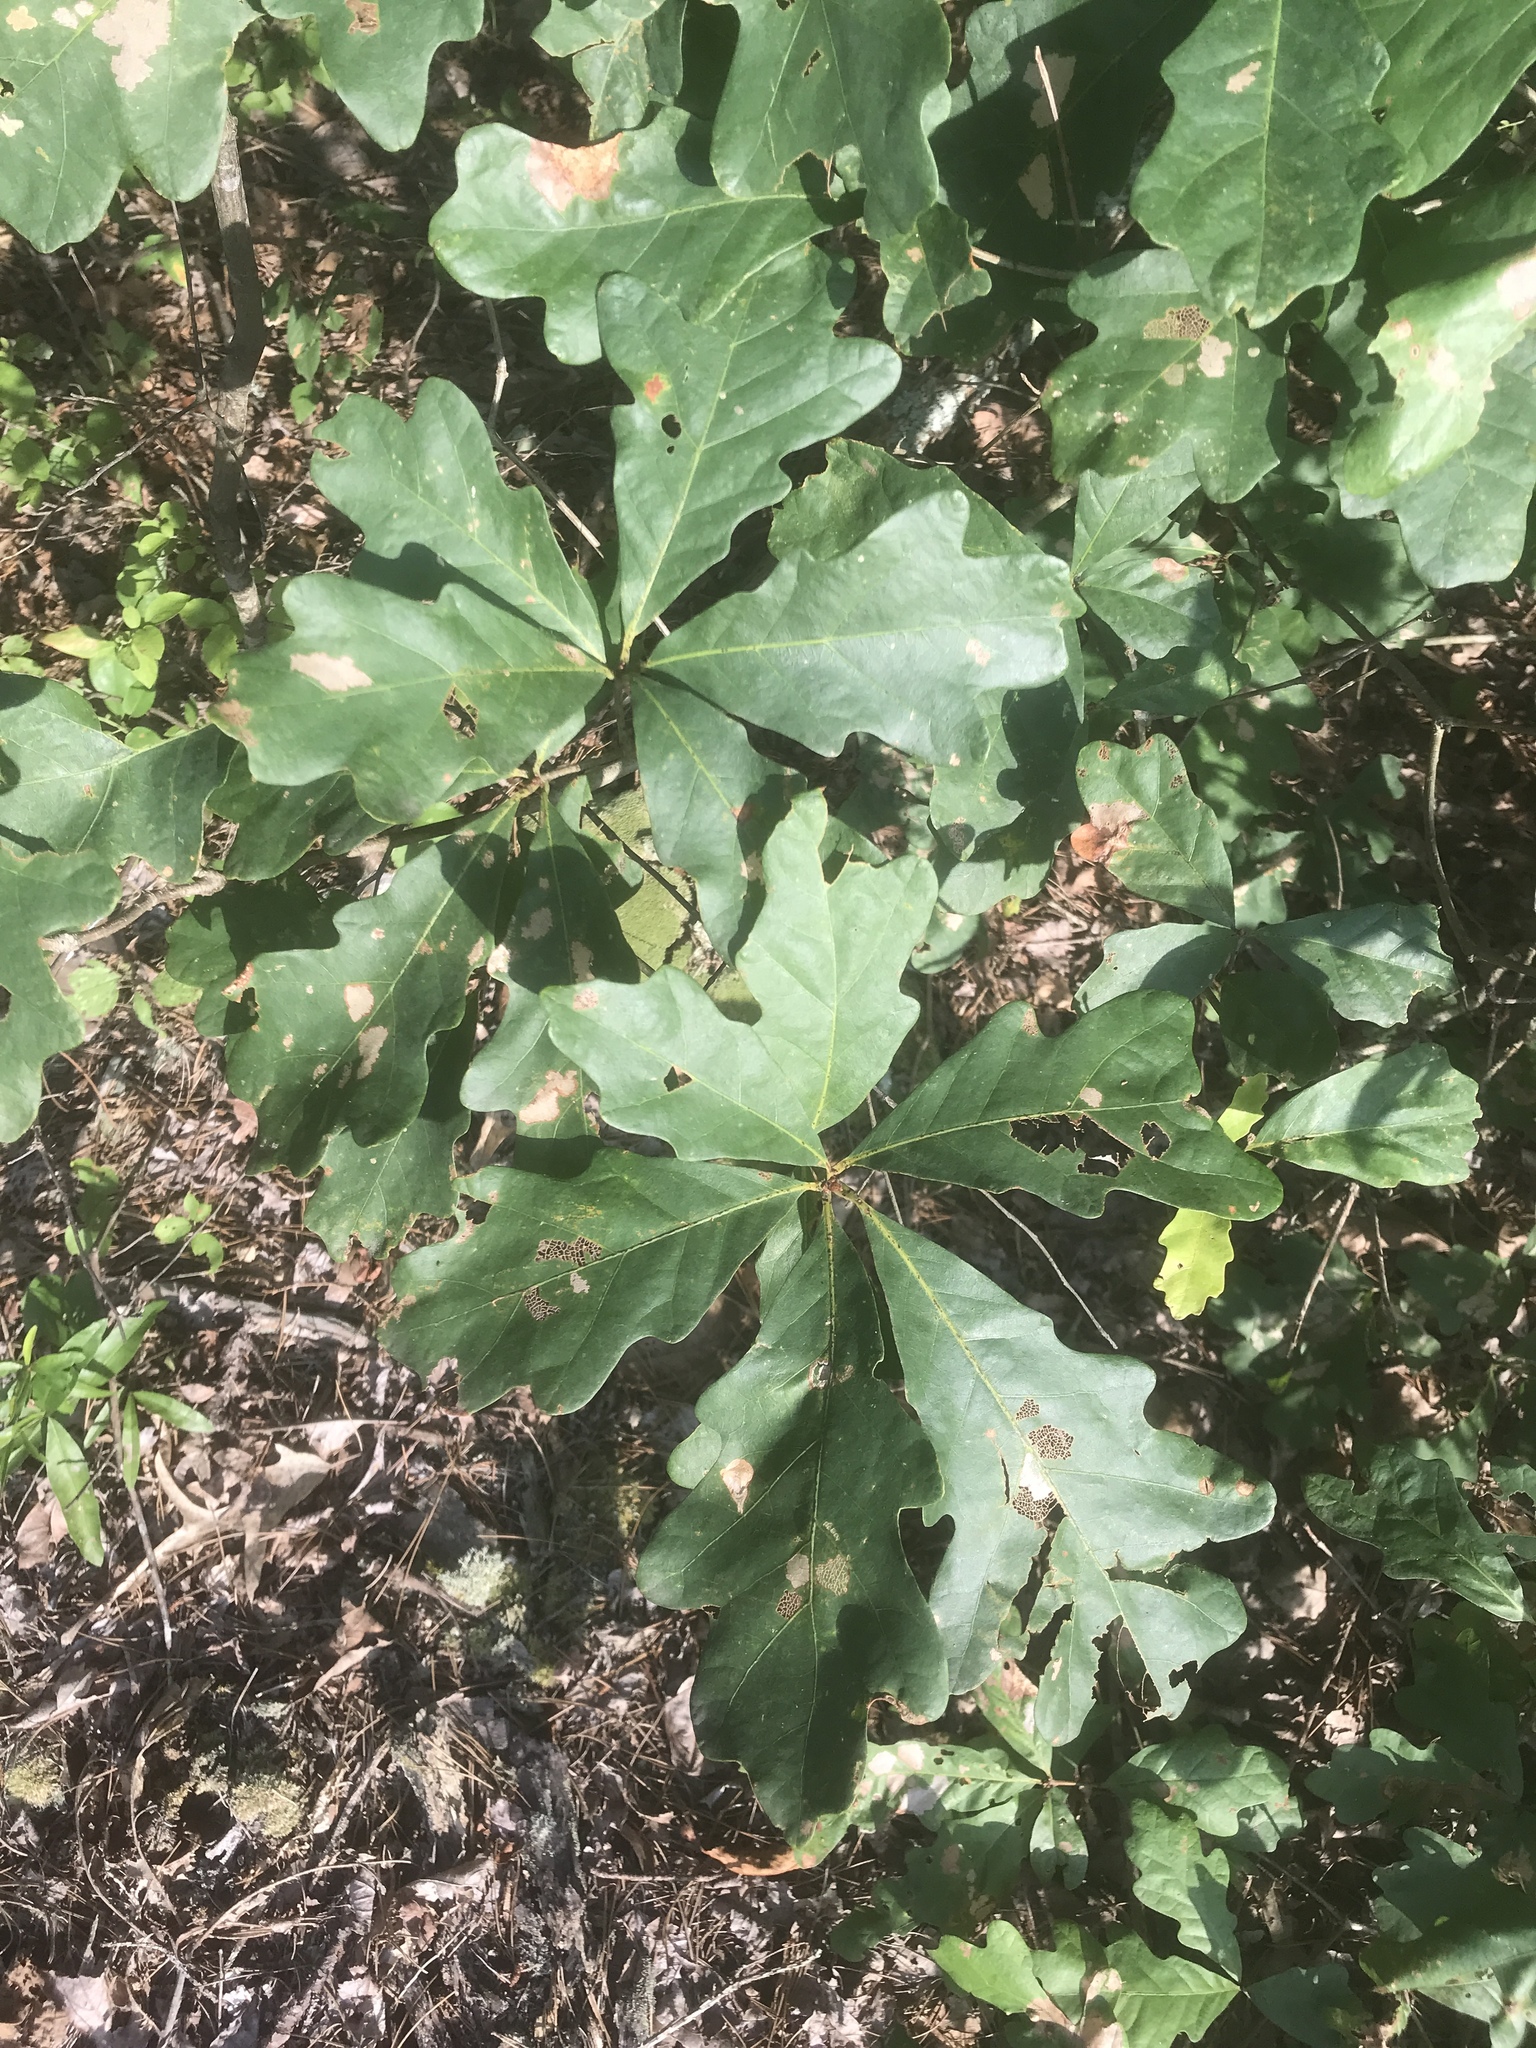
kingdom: Plantae
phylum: Tracheophyta
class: Magnoliopsida
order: Fagales
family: Fagaceae
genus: Quercus
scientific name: Quercus alba
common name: White oak
